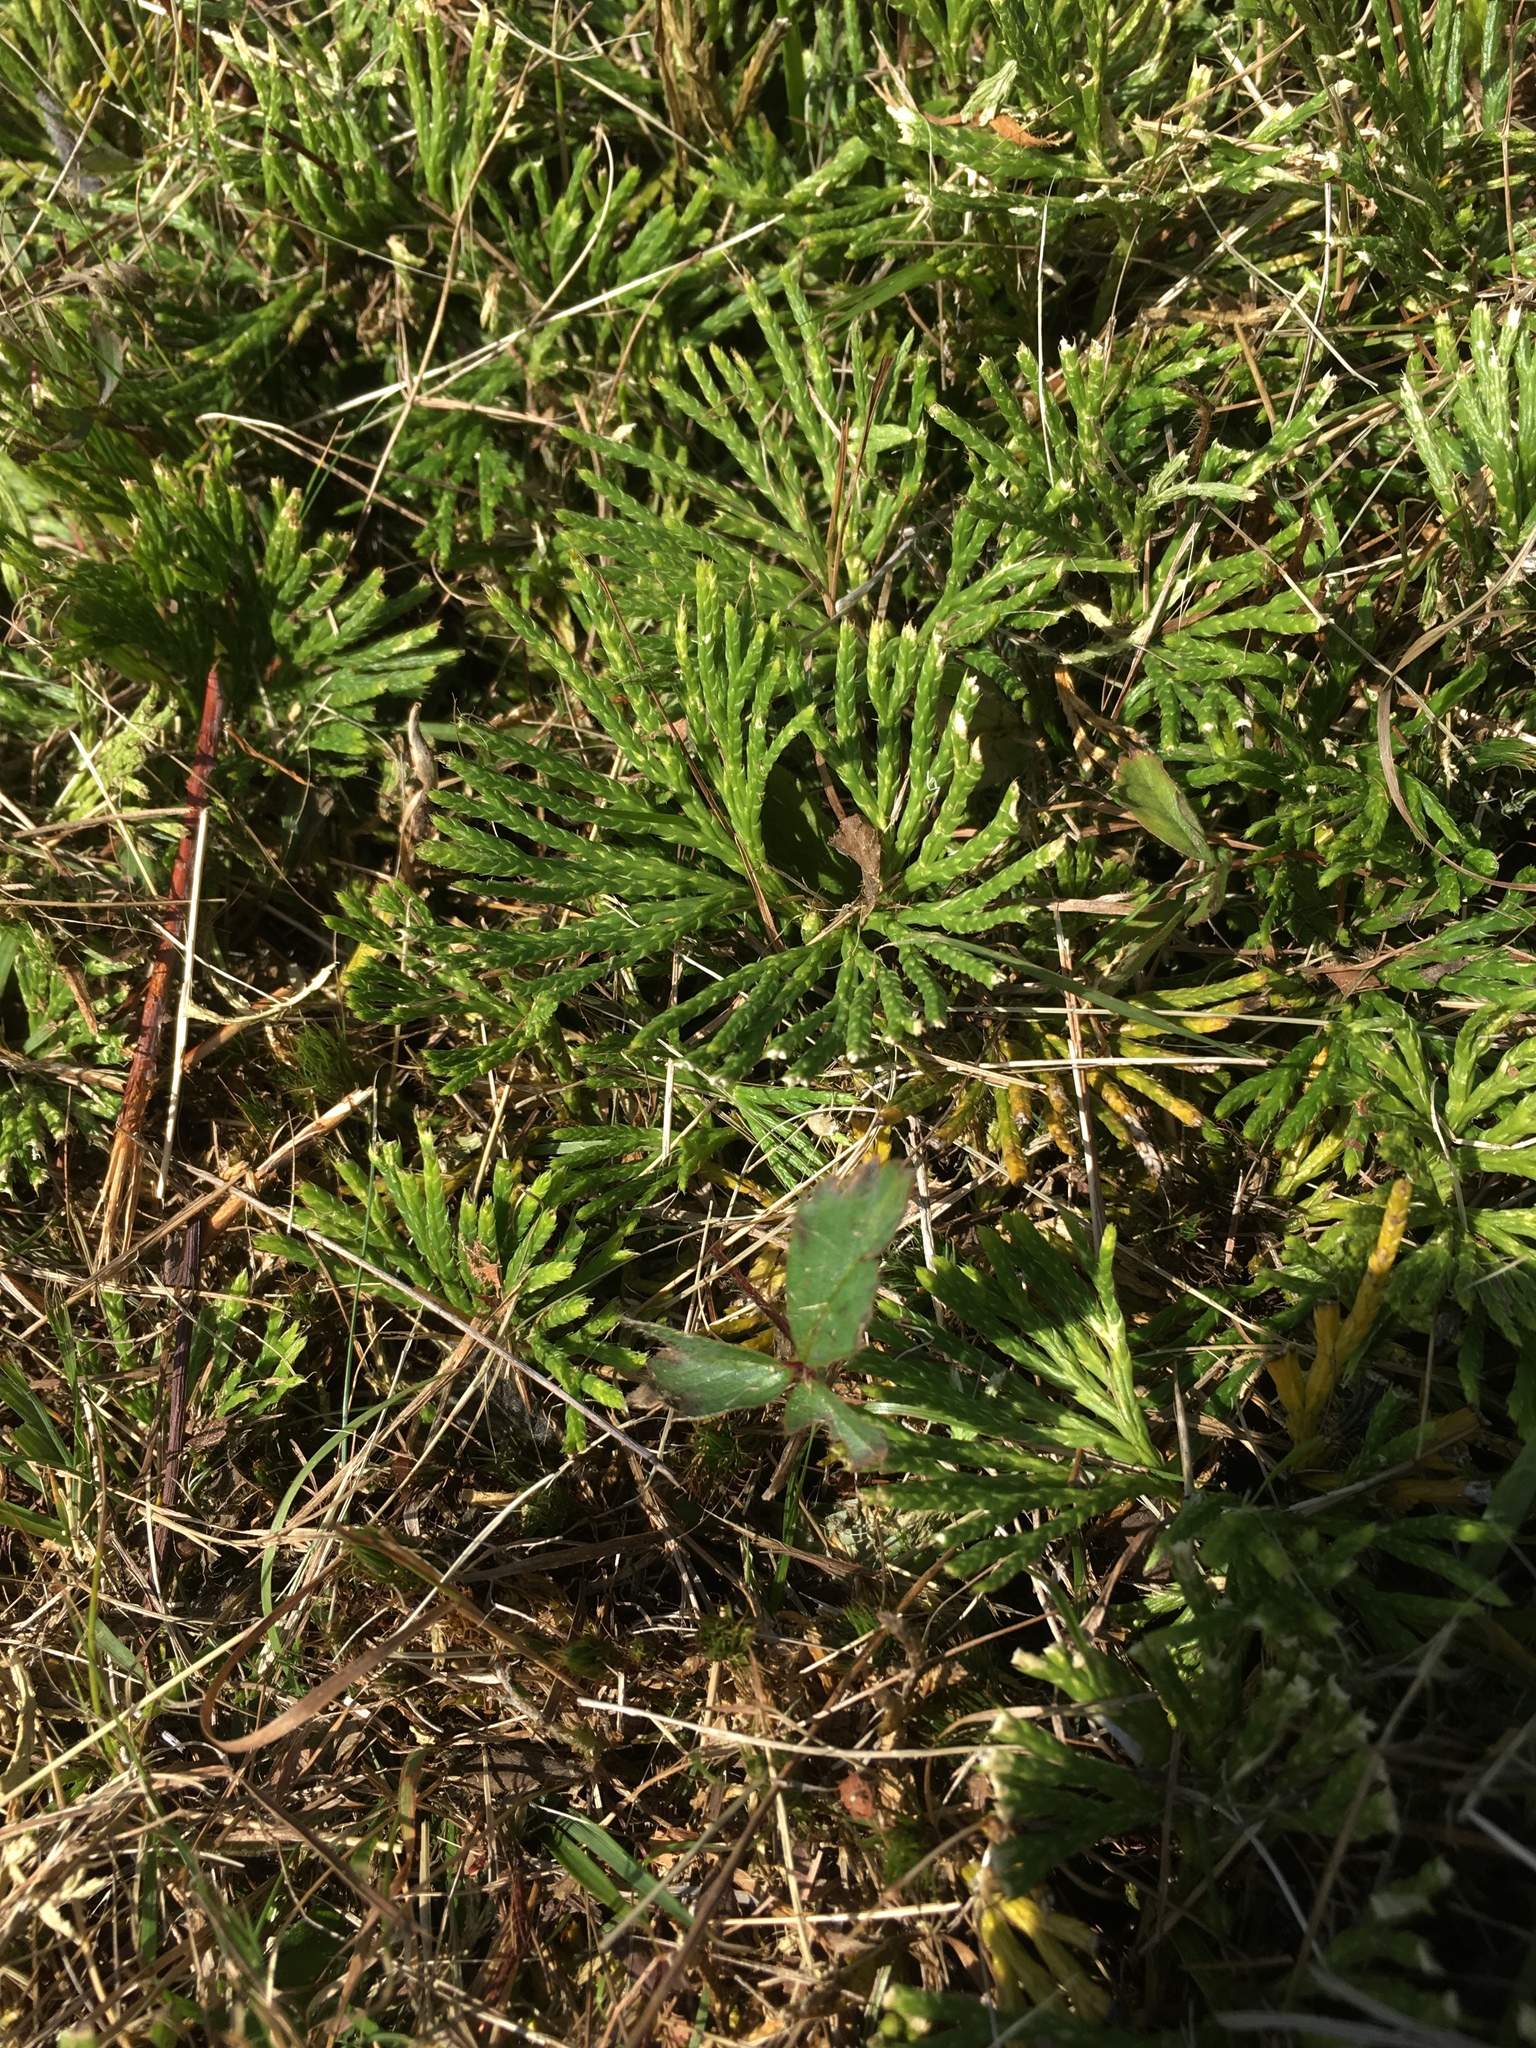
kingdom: Plantae
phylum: Tracheophyta
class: Lycopodiopsida
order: Lycopodiales
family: Lycopodiaceae
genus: Diphasiastrum
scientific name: Diphasiastrum digitatum
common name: Southern running-pine
